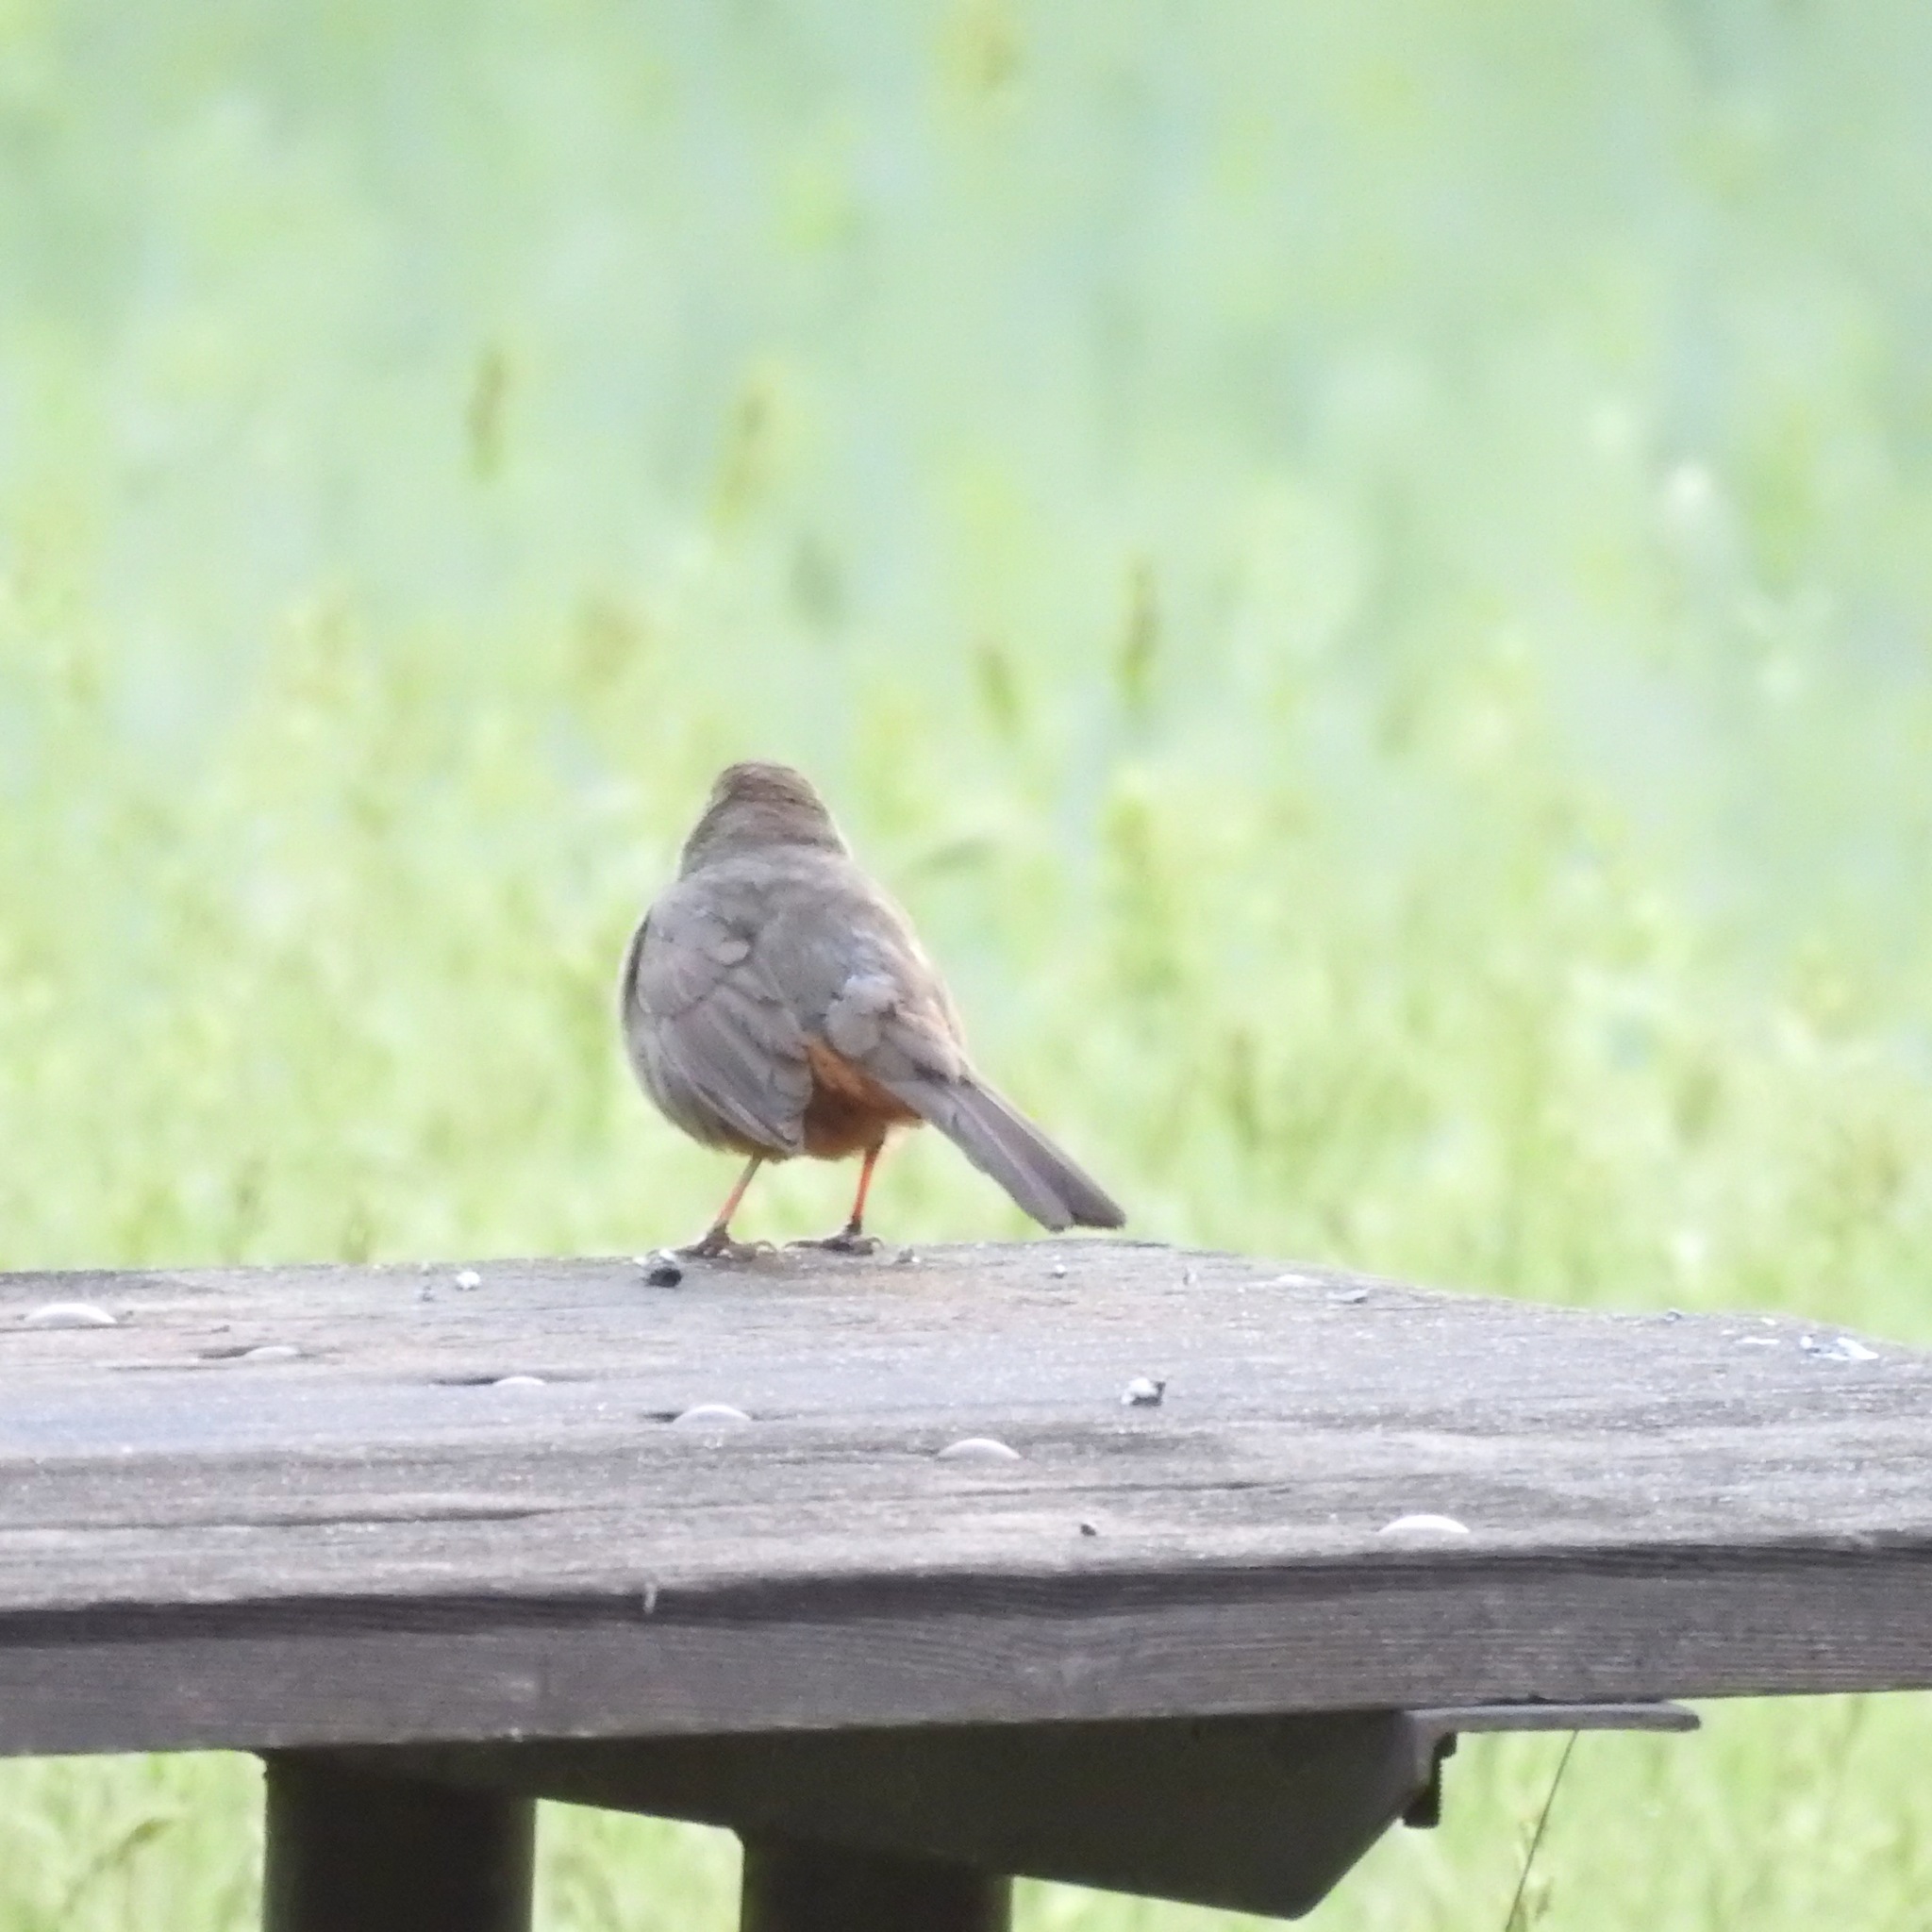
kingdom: Animalia
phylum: Chordata
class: Aves
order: Passeriformes
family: Passerellidae
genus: Melozone
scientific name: Melozone crissalis
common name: California towhee
